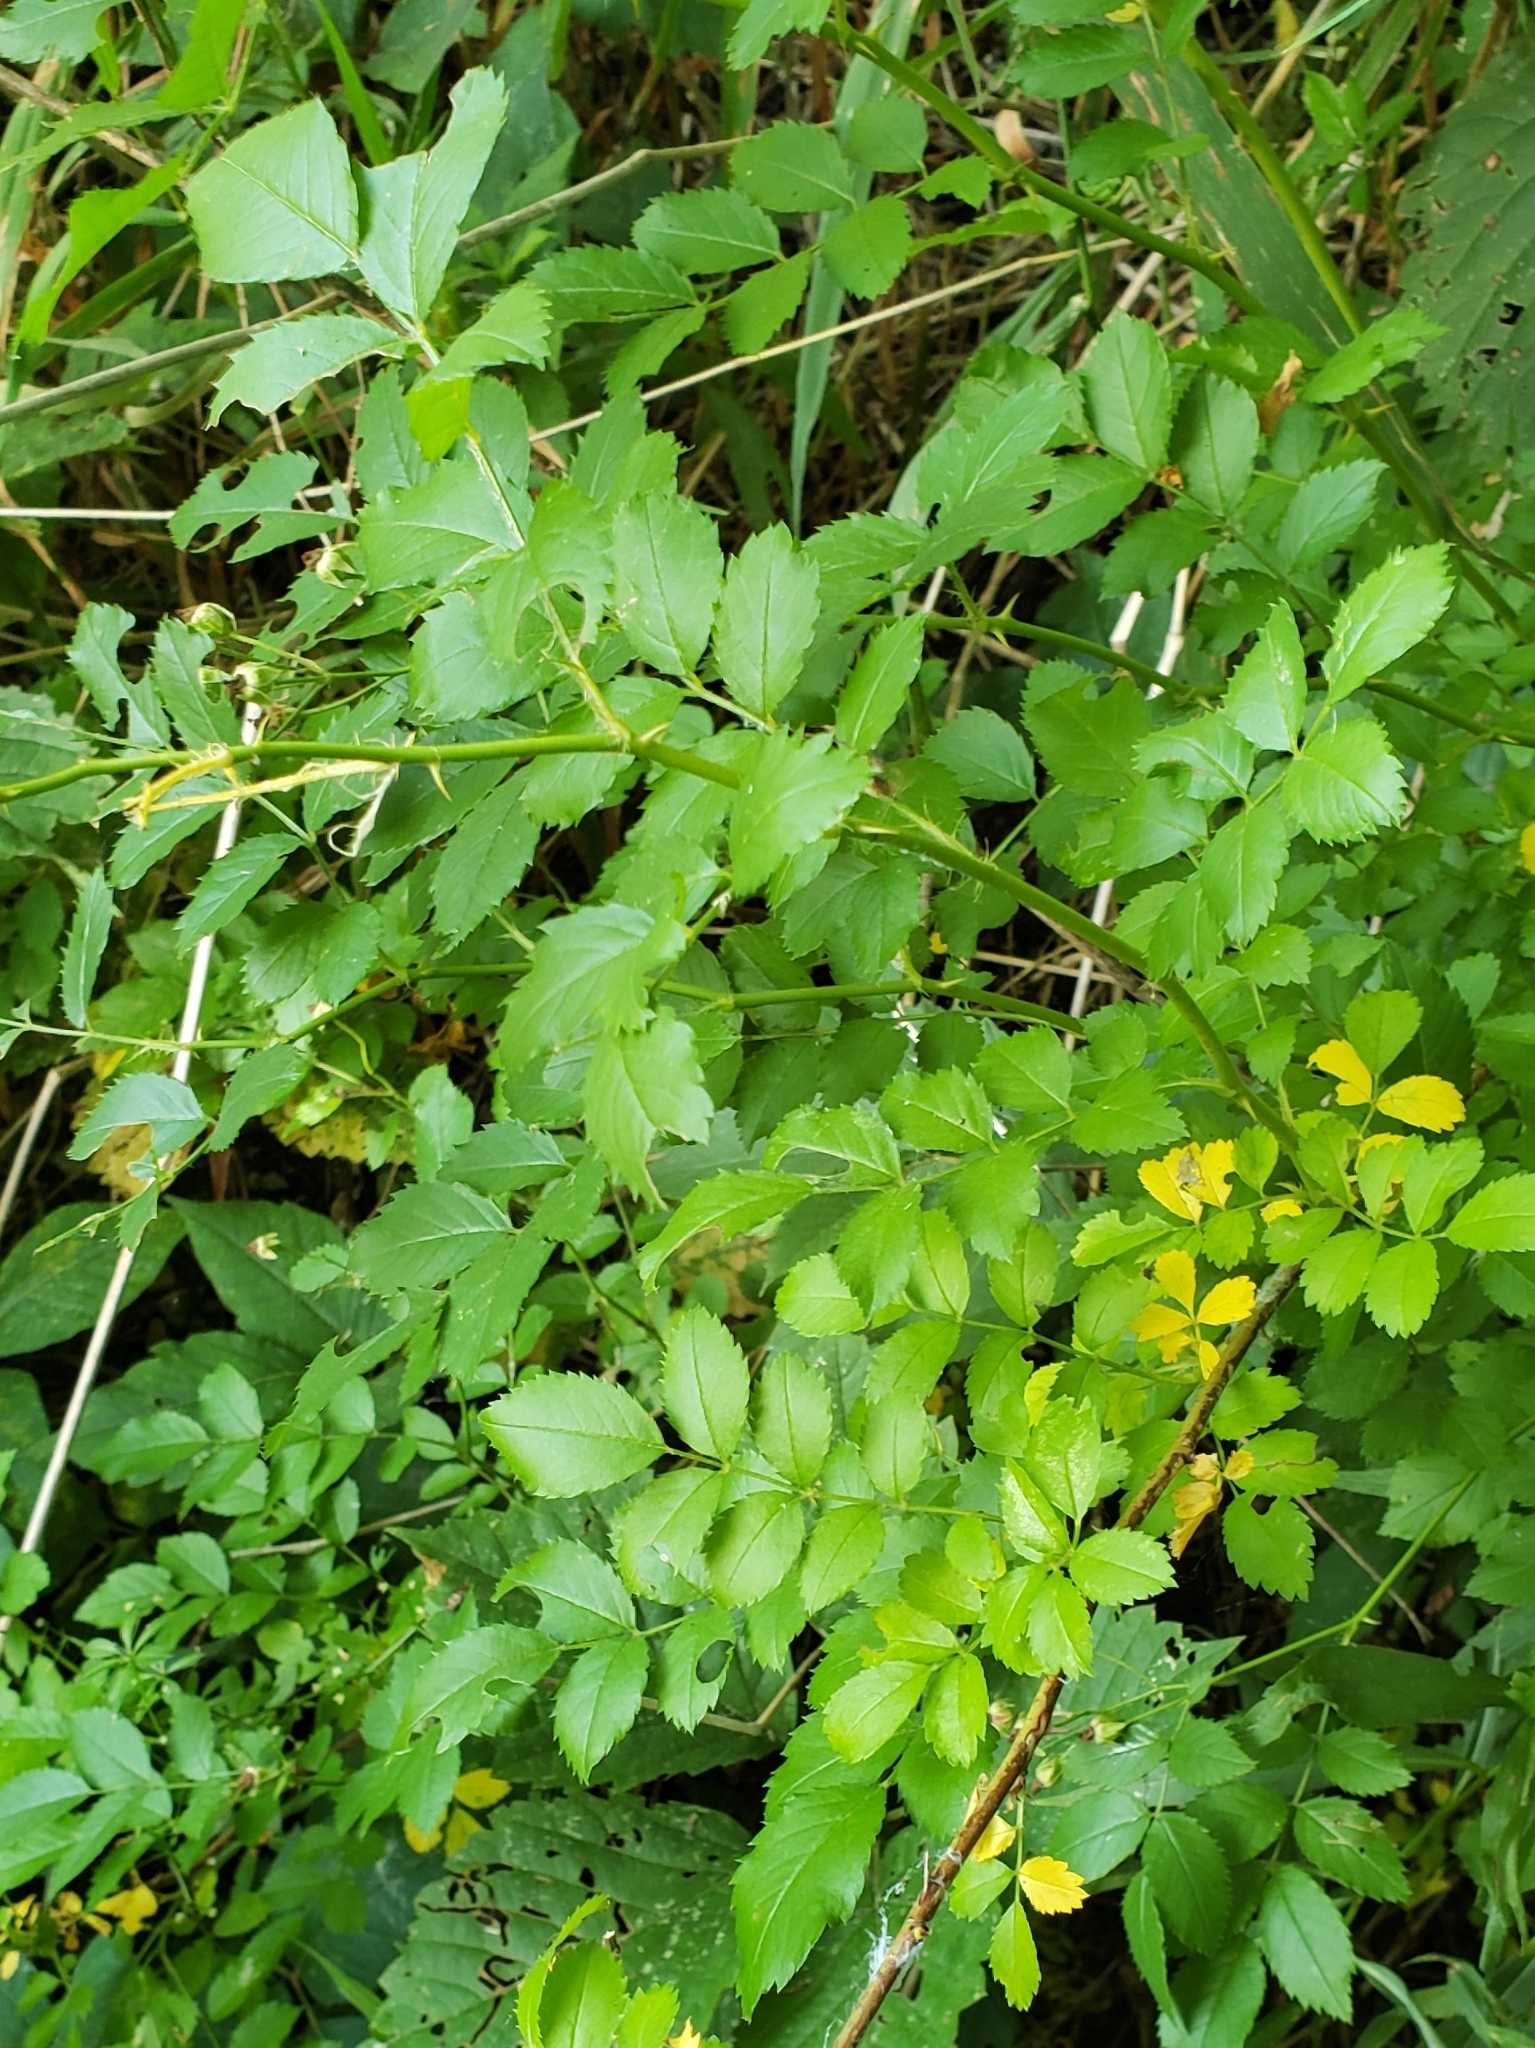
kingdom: Plantae
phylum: Tracheophyta
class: Magnoliopsida
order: Rosales
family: Rosaceae
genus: Rosa
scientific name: Rosa multiflora
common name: Multiflora rose
